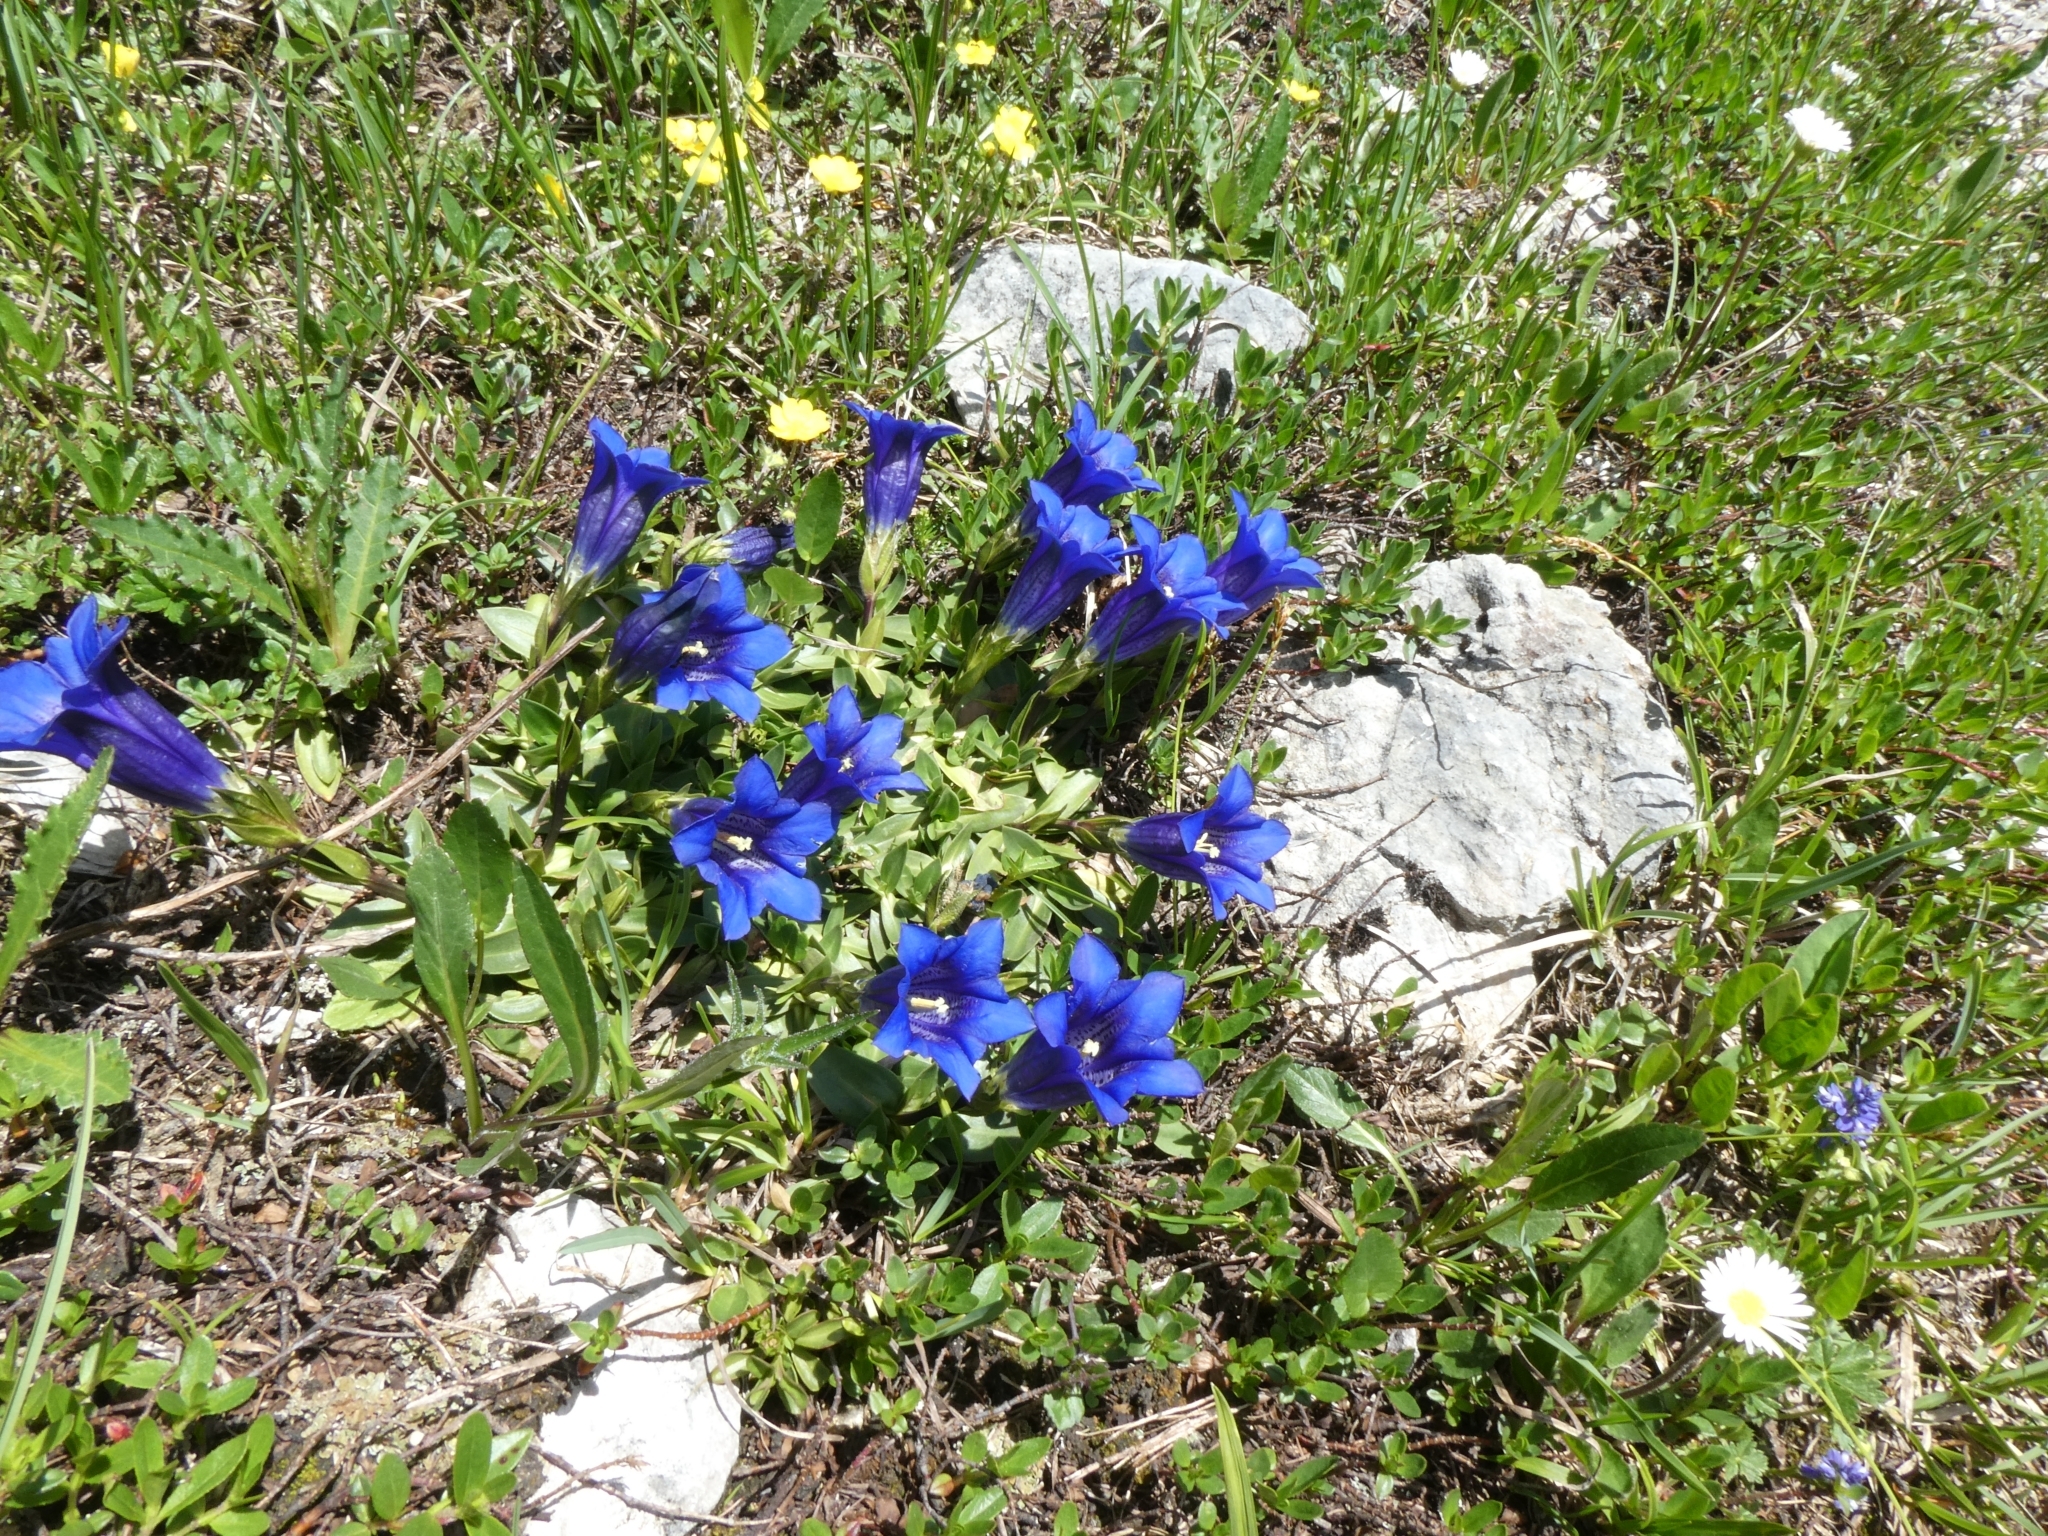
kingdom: Plantae
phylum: Tracheophyta
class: Magnoliopsida
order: Gentianales
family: Gentianaceae
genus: Gentiana
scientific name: Gentiana clusii
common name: Trumpet gentian
